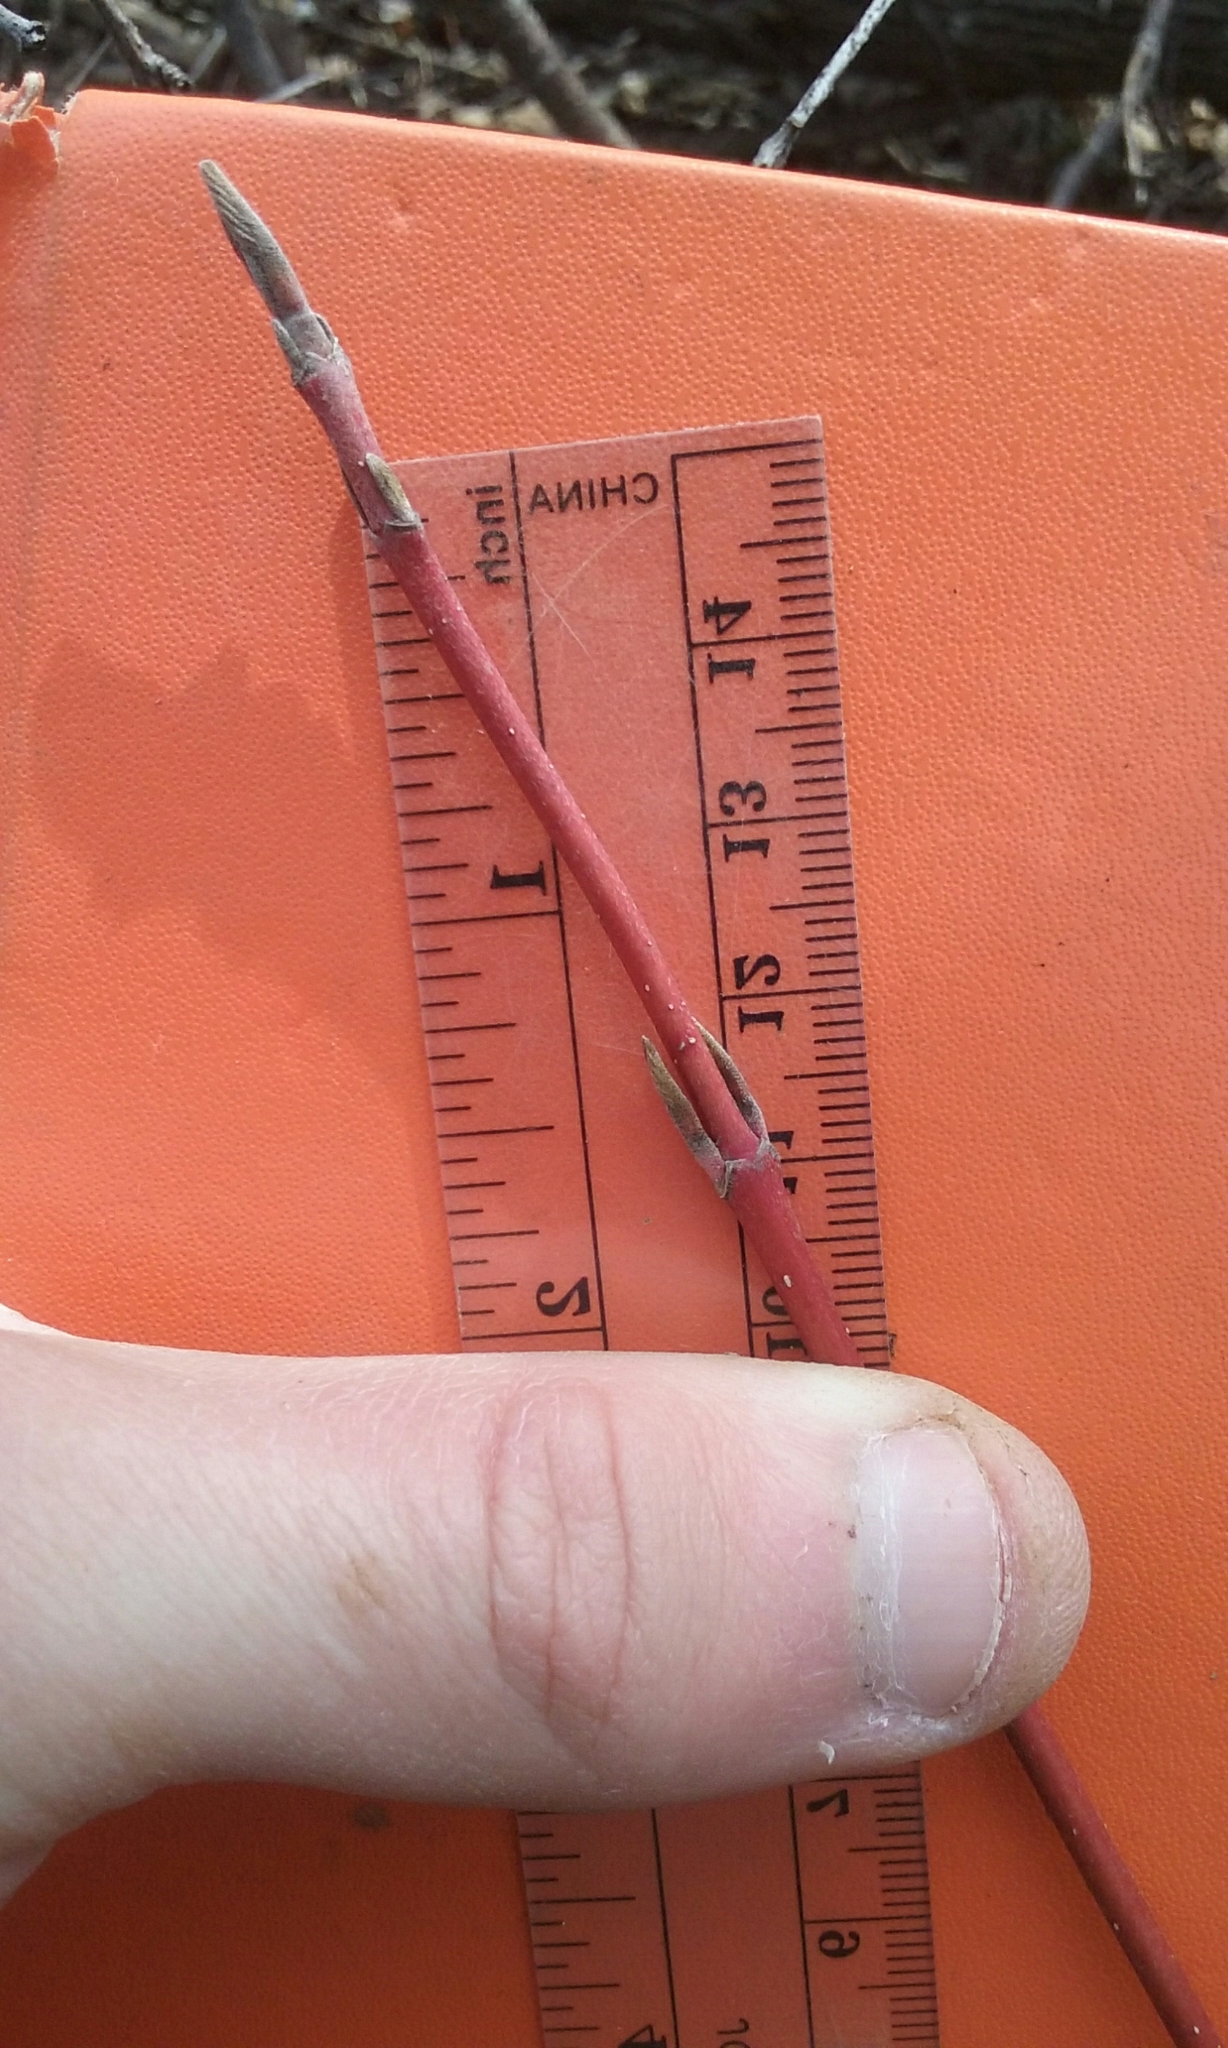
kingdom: Plantae
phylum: Tracheophyta
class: Magnoliopsida
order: Cornales
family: Cornaceae
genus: Cornus
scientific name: Cornus sericea
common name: Red-osier dogwood
